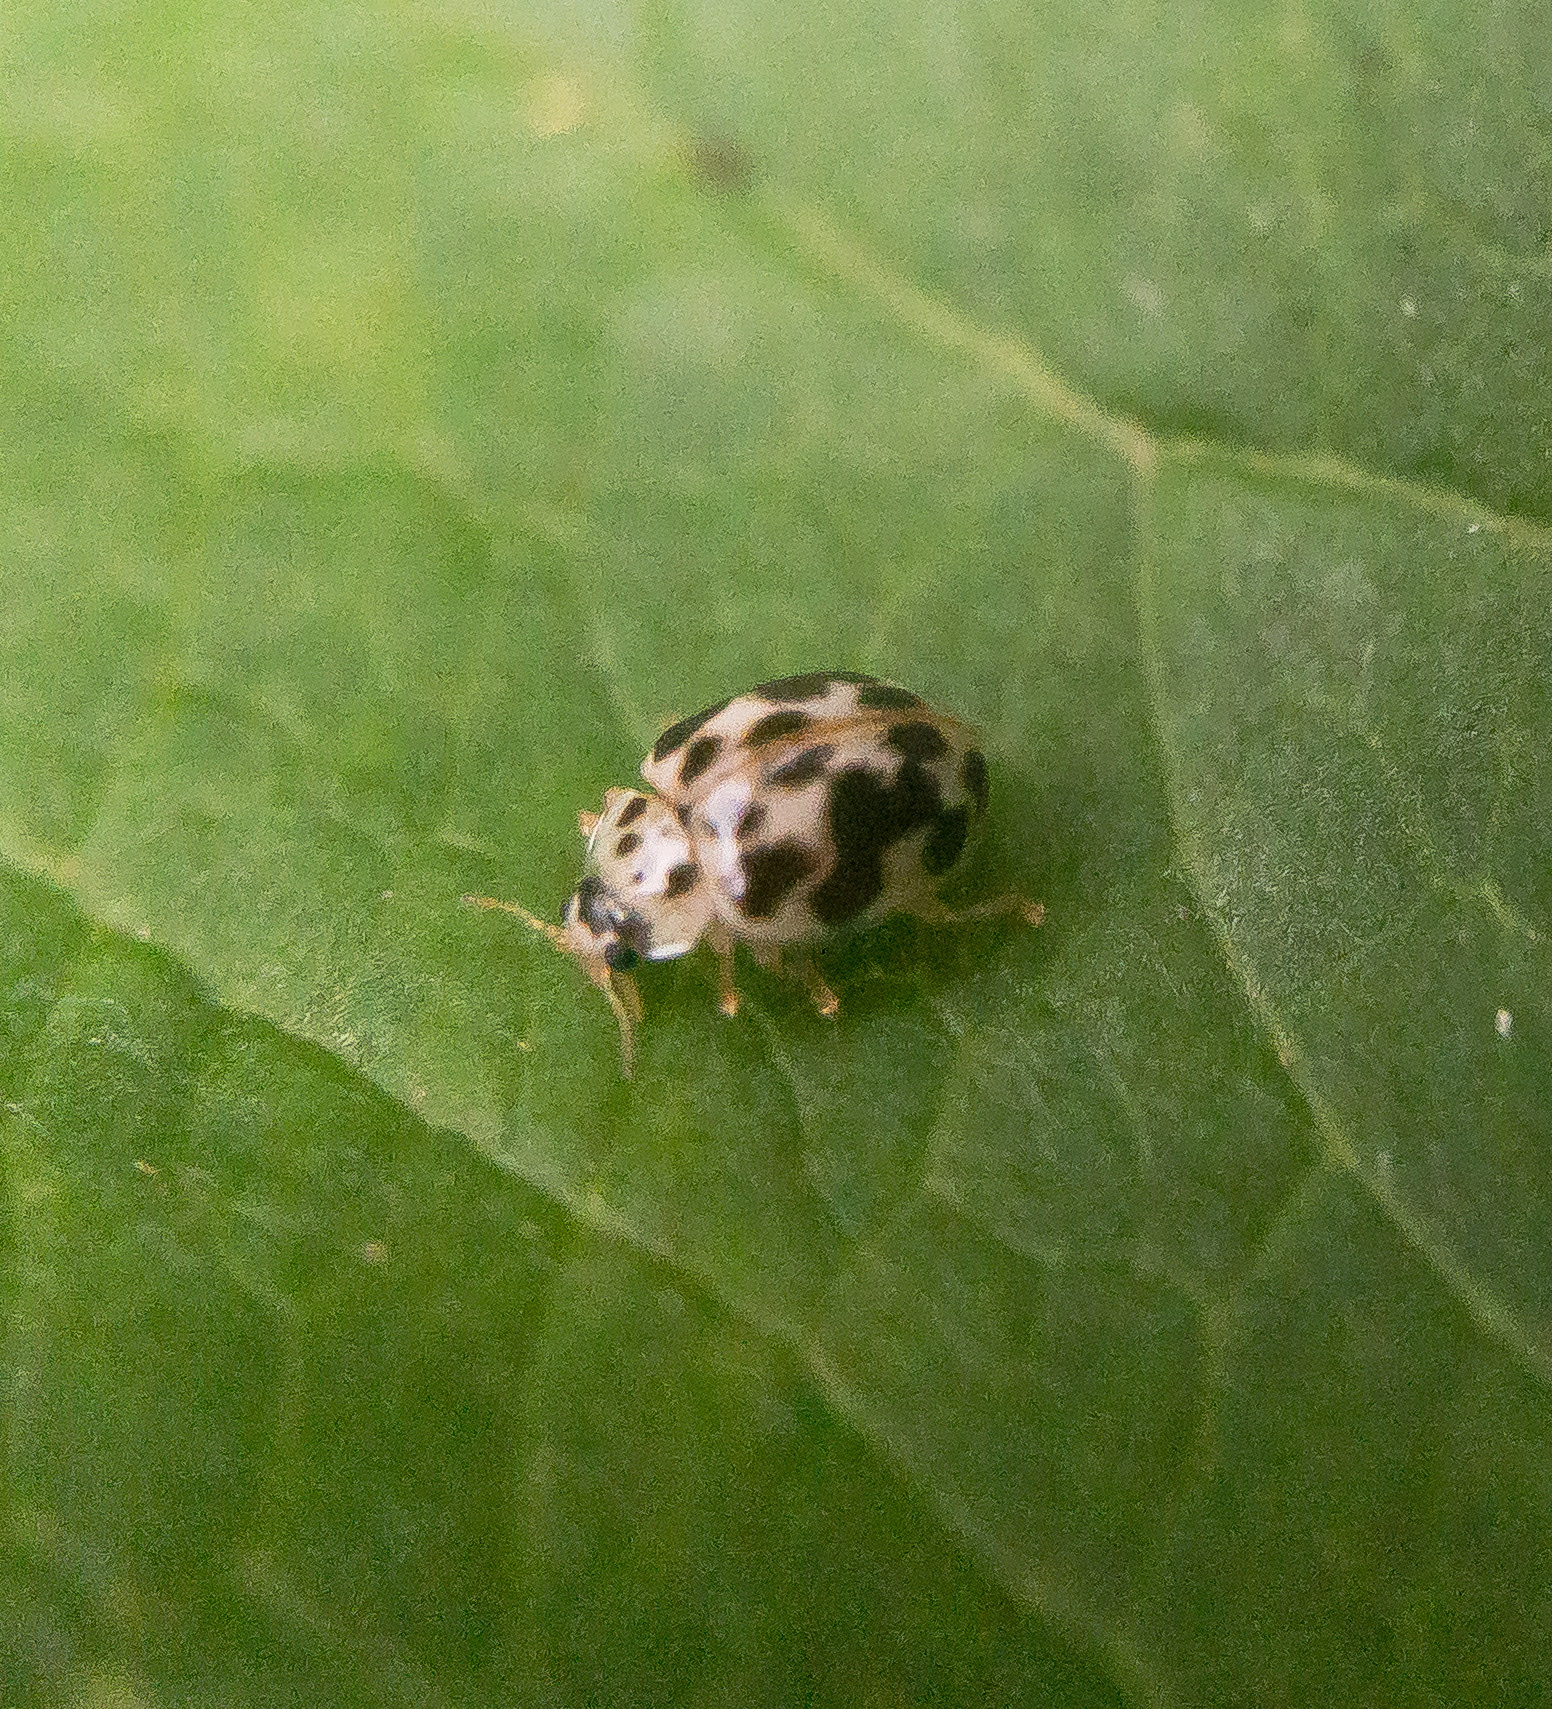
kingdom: Animalia
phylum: Arthropoda
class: Insecta
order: Coleoptera
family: Coccinellidae
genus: Psyllobora
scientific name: Psyllobora vigintimaculata
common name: Ladybird beetle
